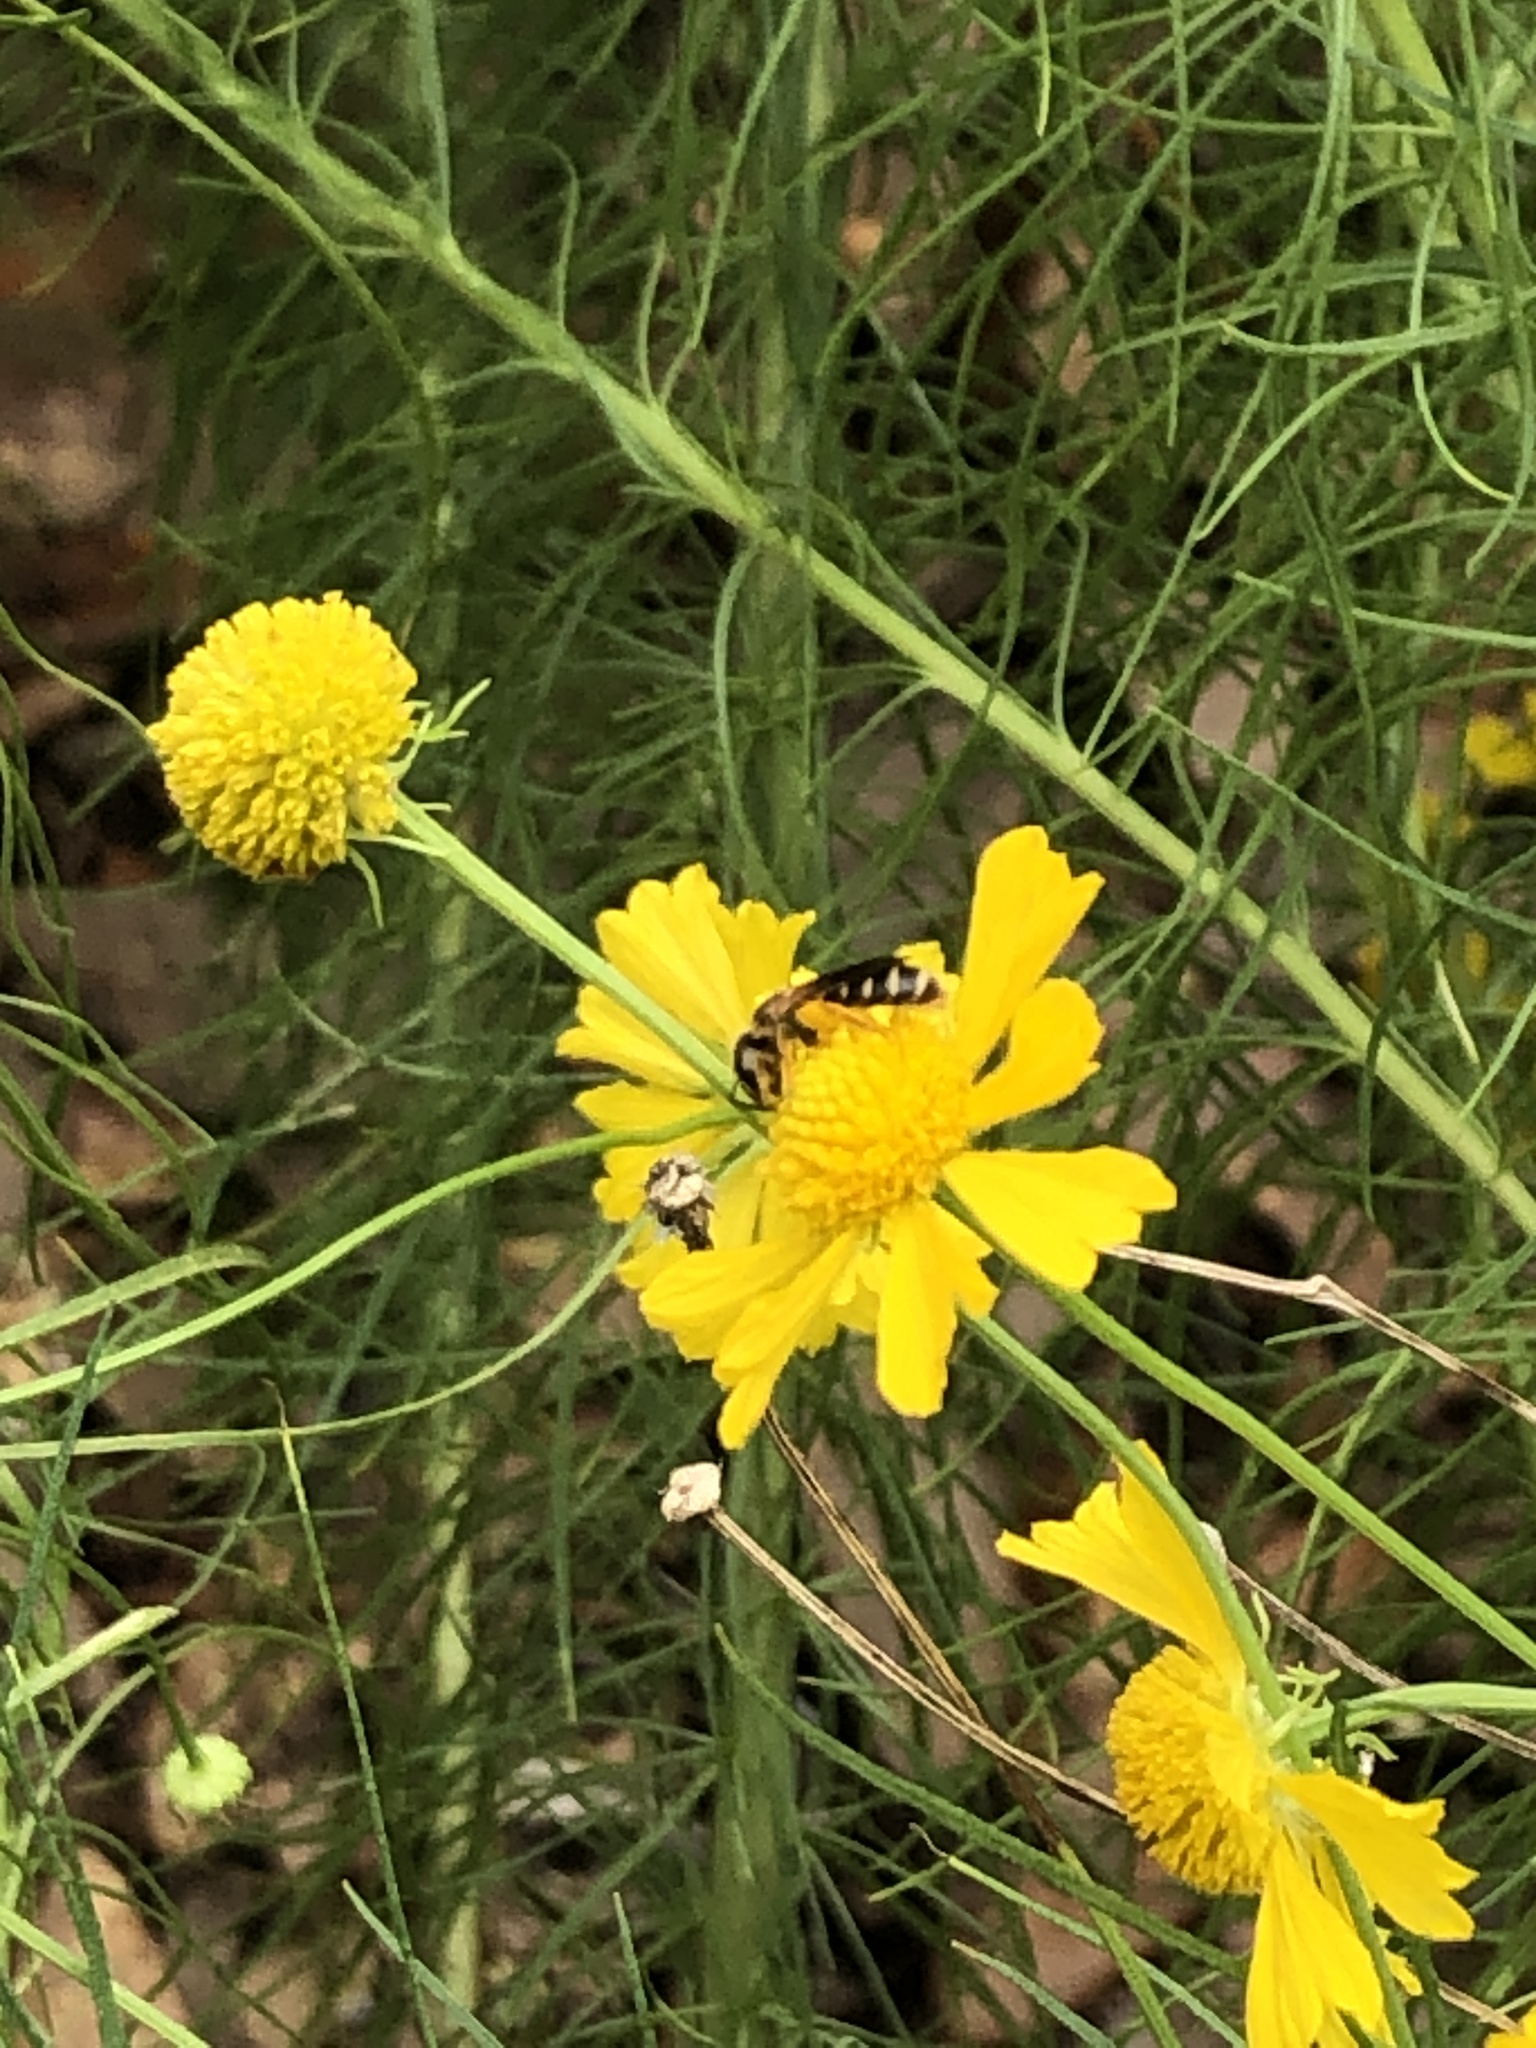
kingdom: Animalia
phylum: Arthropoda
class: Insecta
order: Hymenoptera
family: Halictidae
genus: Halictus
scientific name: Halictus poeyi
